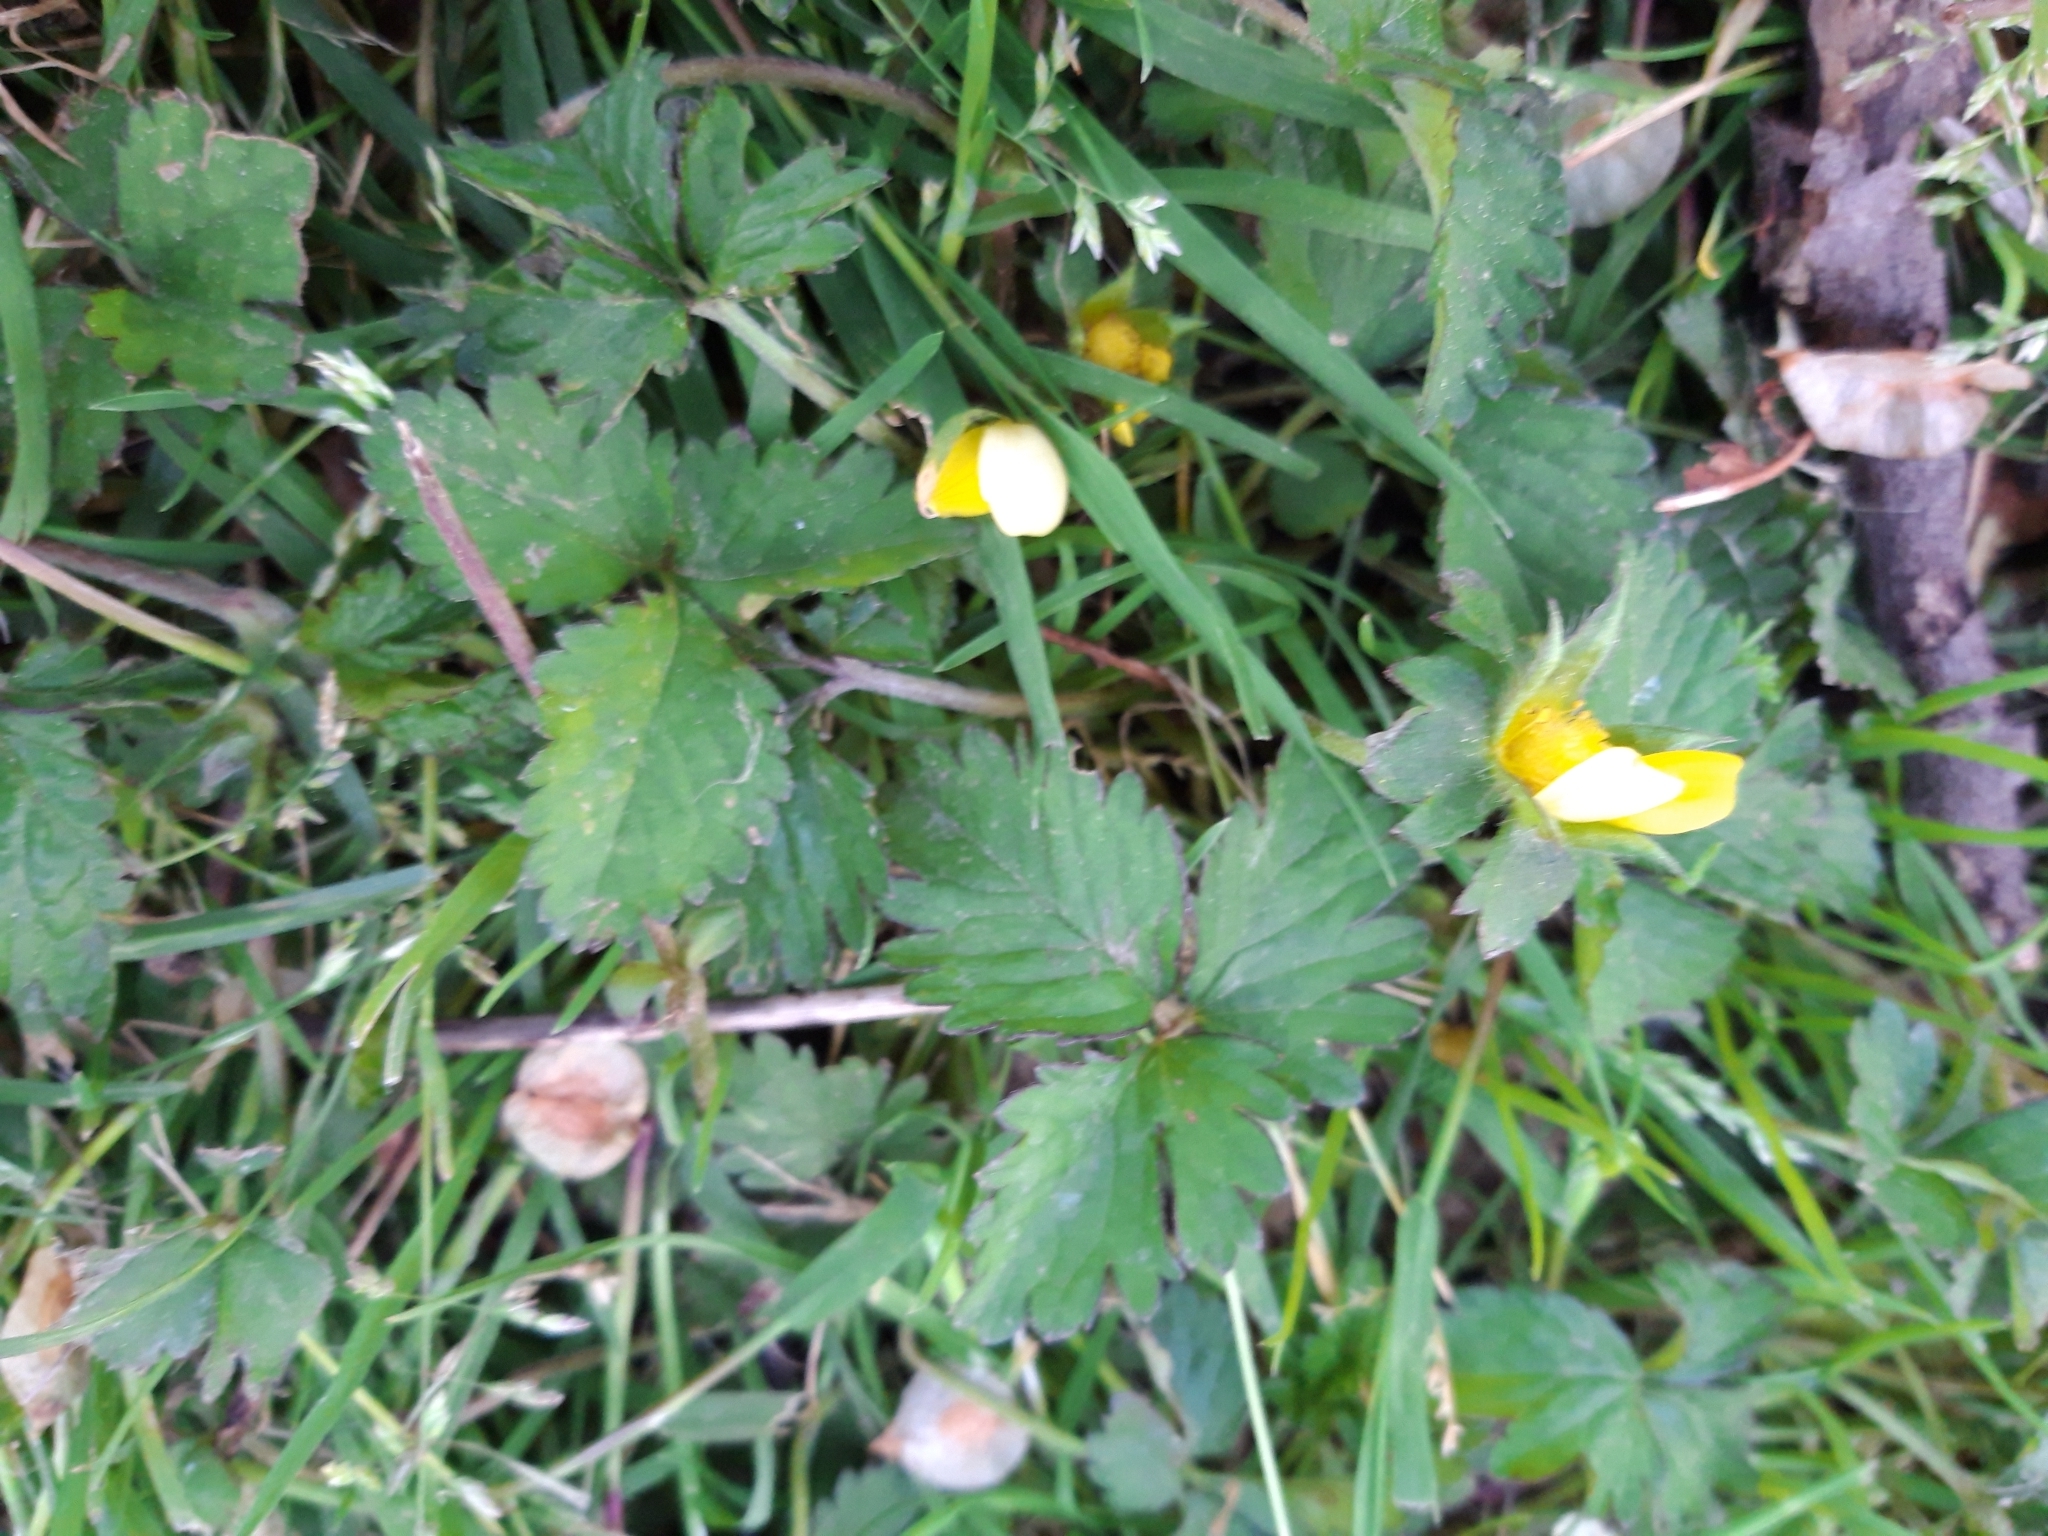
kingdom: Plantae
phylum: Tracheophyta
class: Magnoliopsida
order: Rosales
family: Rosaceae
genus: Potentilla
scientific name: Potentilla indica
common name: Yellow-flowered strawberry
